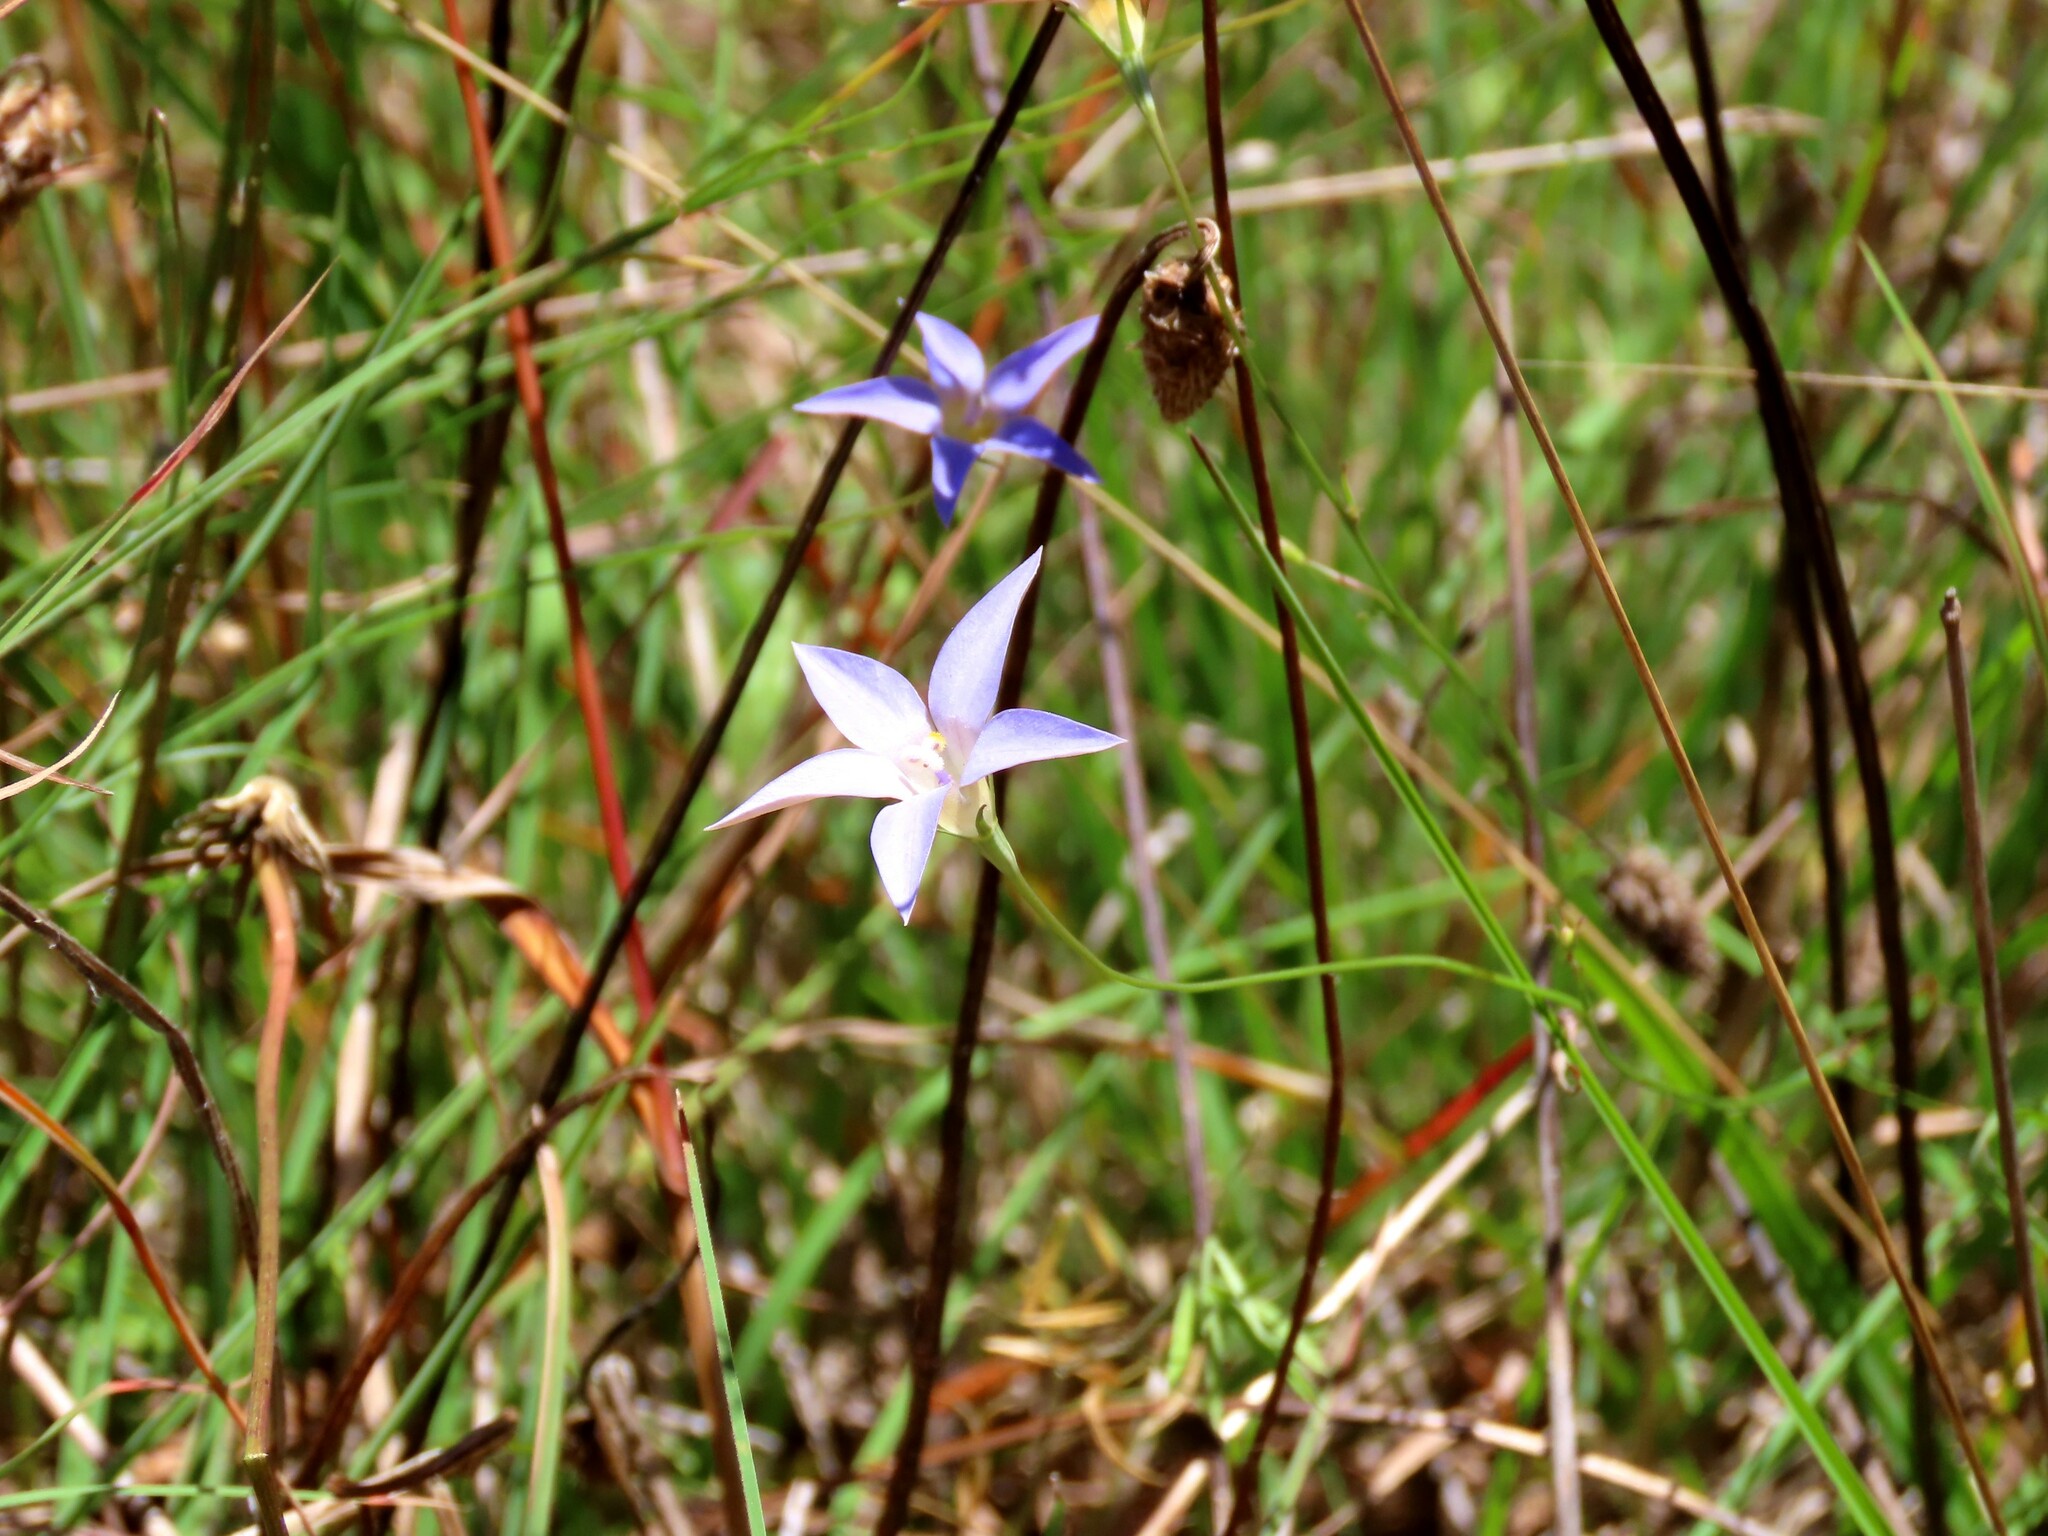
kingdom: Plantae
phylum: Tracheophyta
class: Magnoliopsida
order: Asterales
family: Campanulaceae
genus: Wahlenbergia
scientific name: Wahlenbergia luteola
